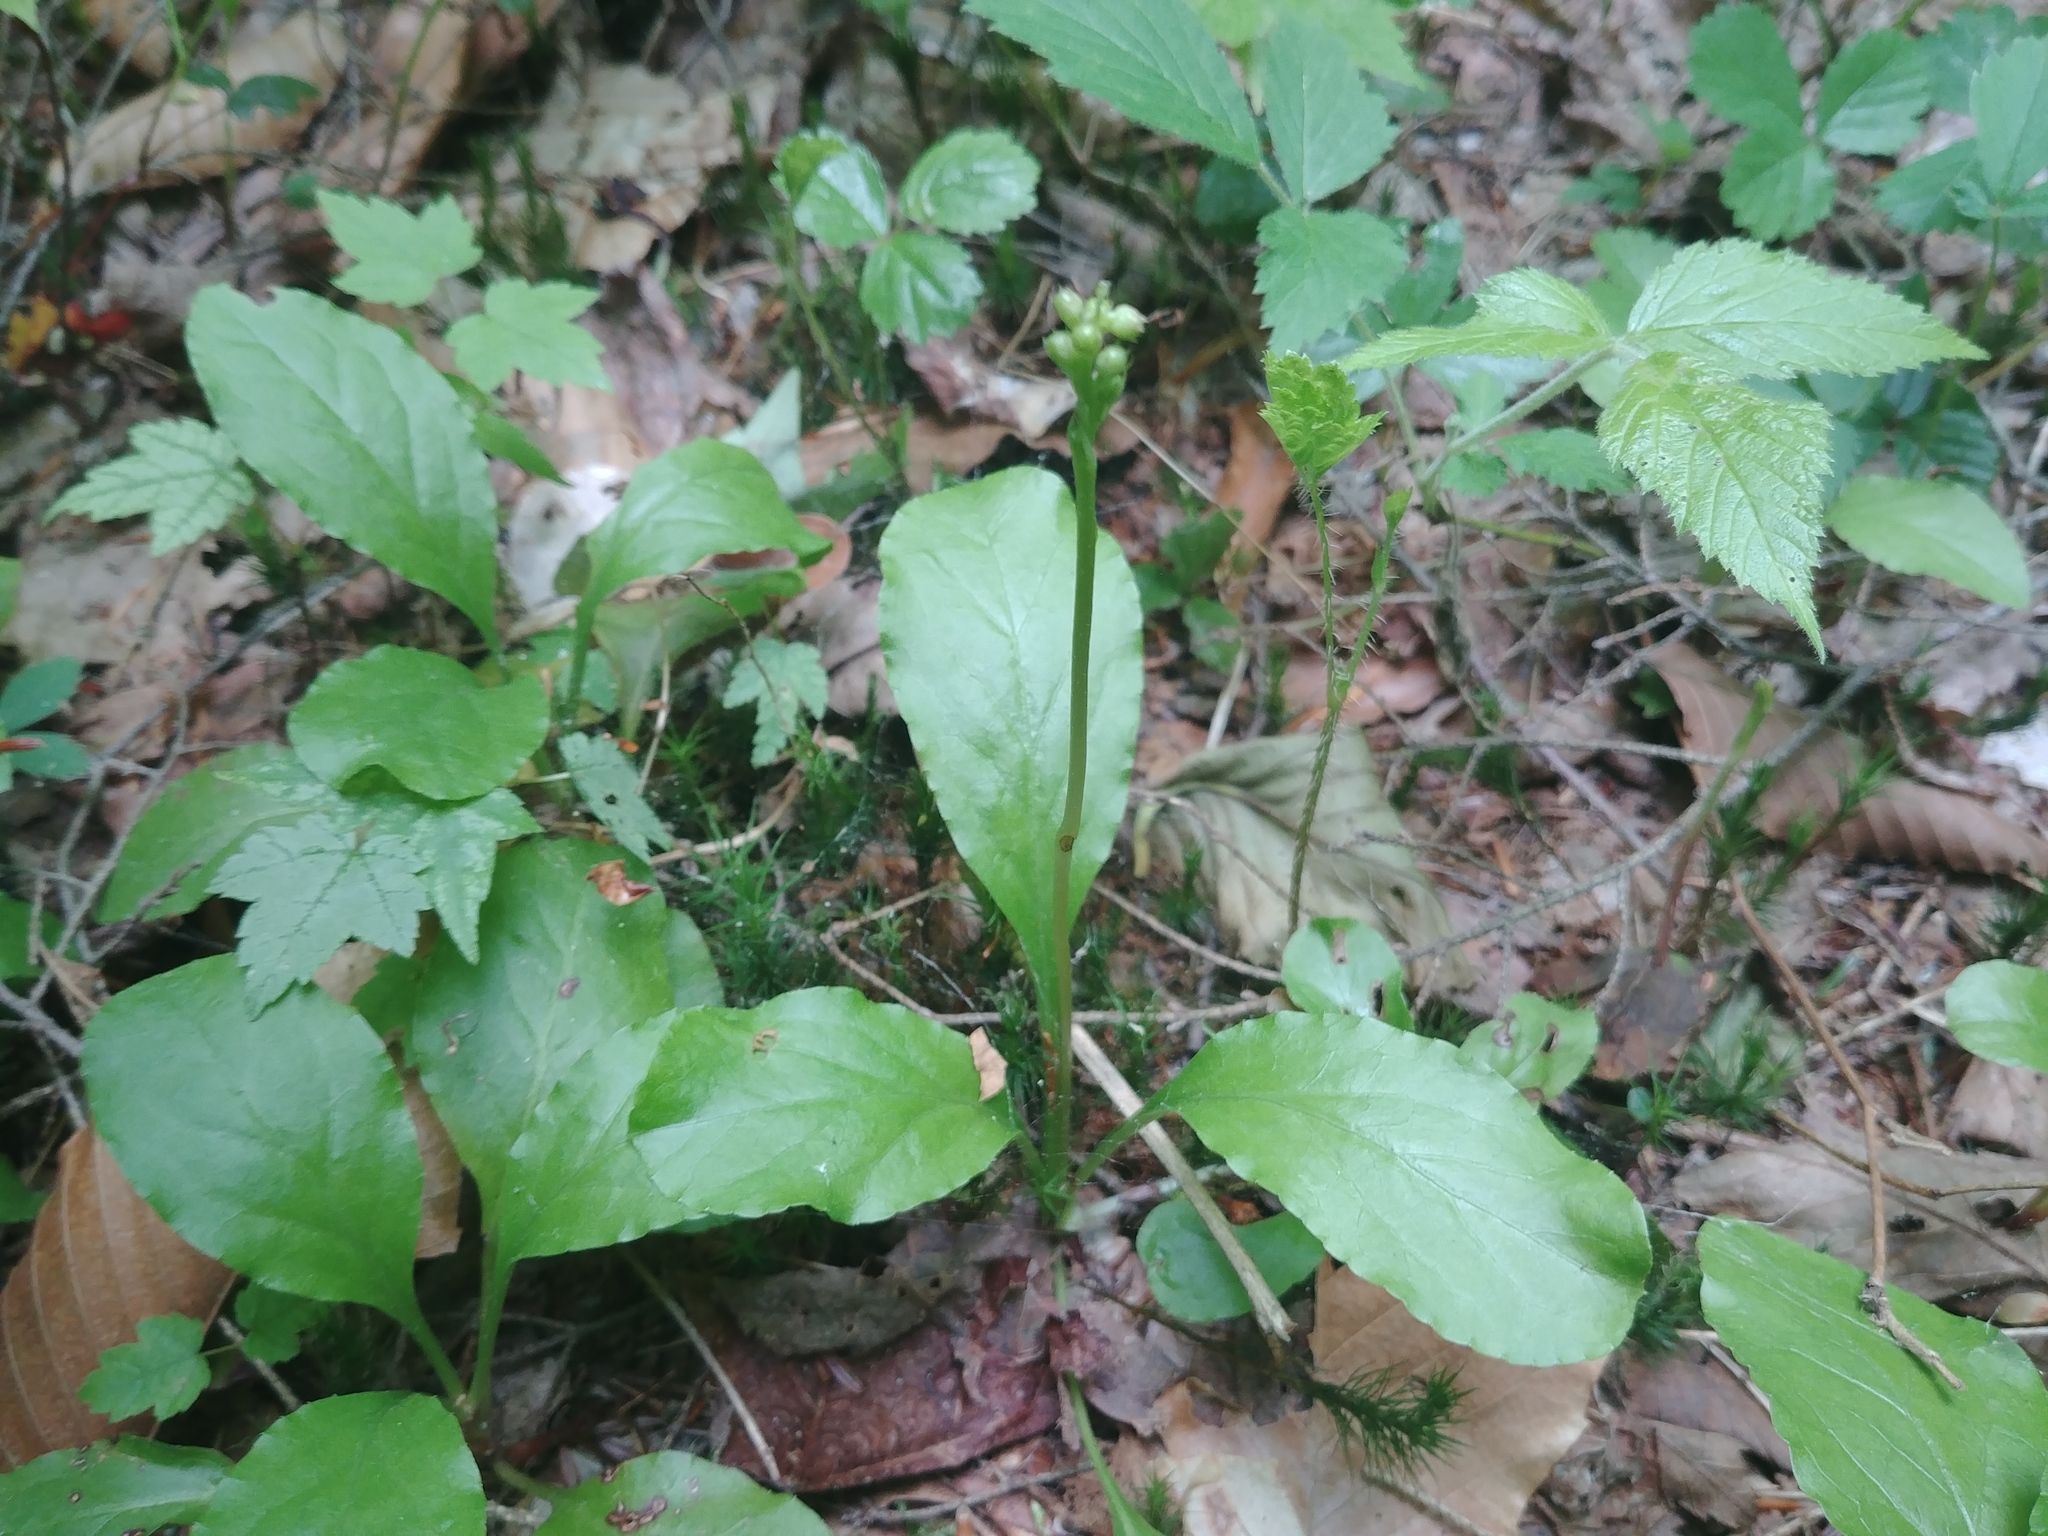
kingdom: Plantae
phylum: Tracheophyta
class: Magnoliopsida
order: Ericales
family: Ericaceae
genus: Pyrola
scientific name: Pyrola elliptica
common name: Shinleaf
